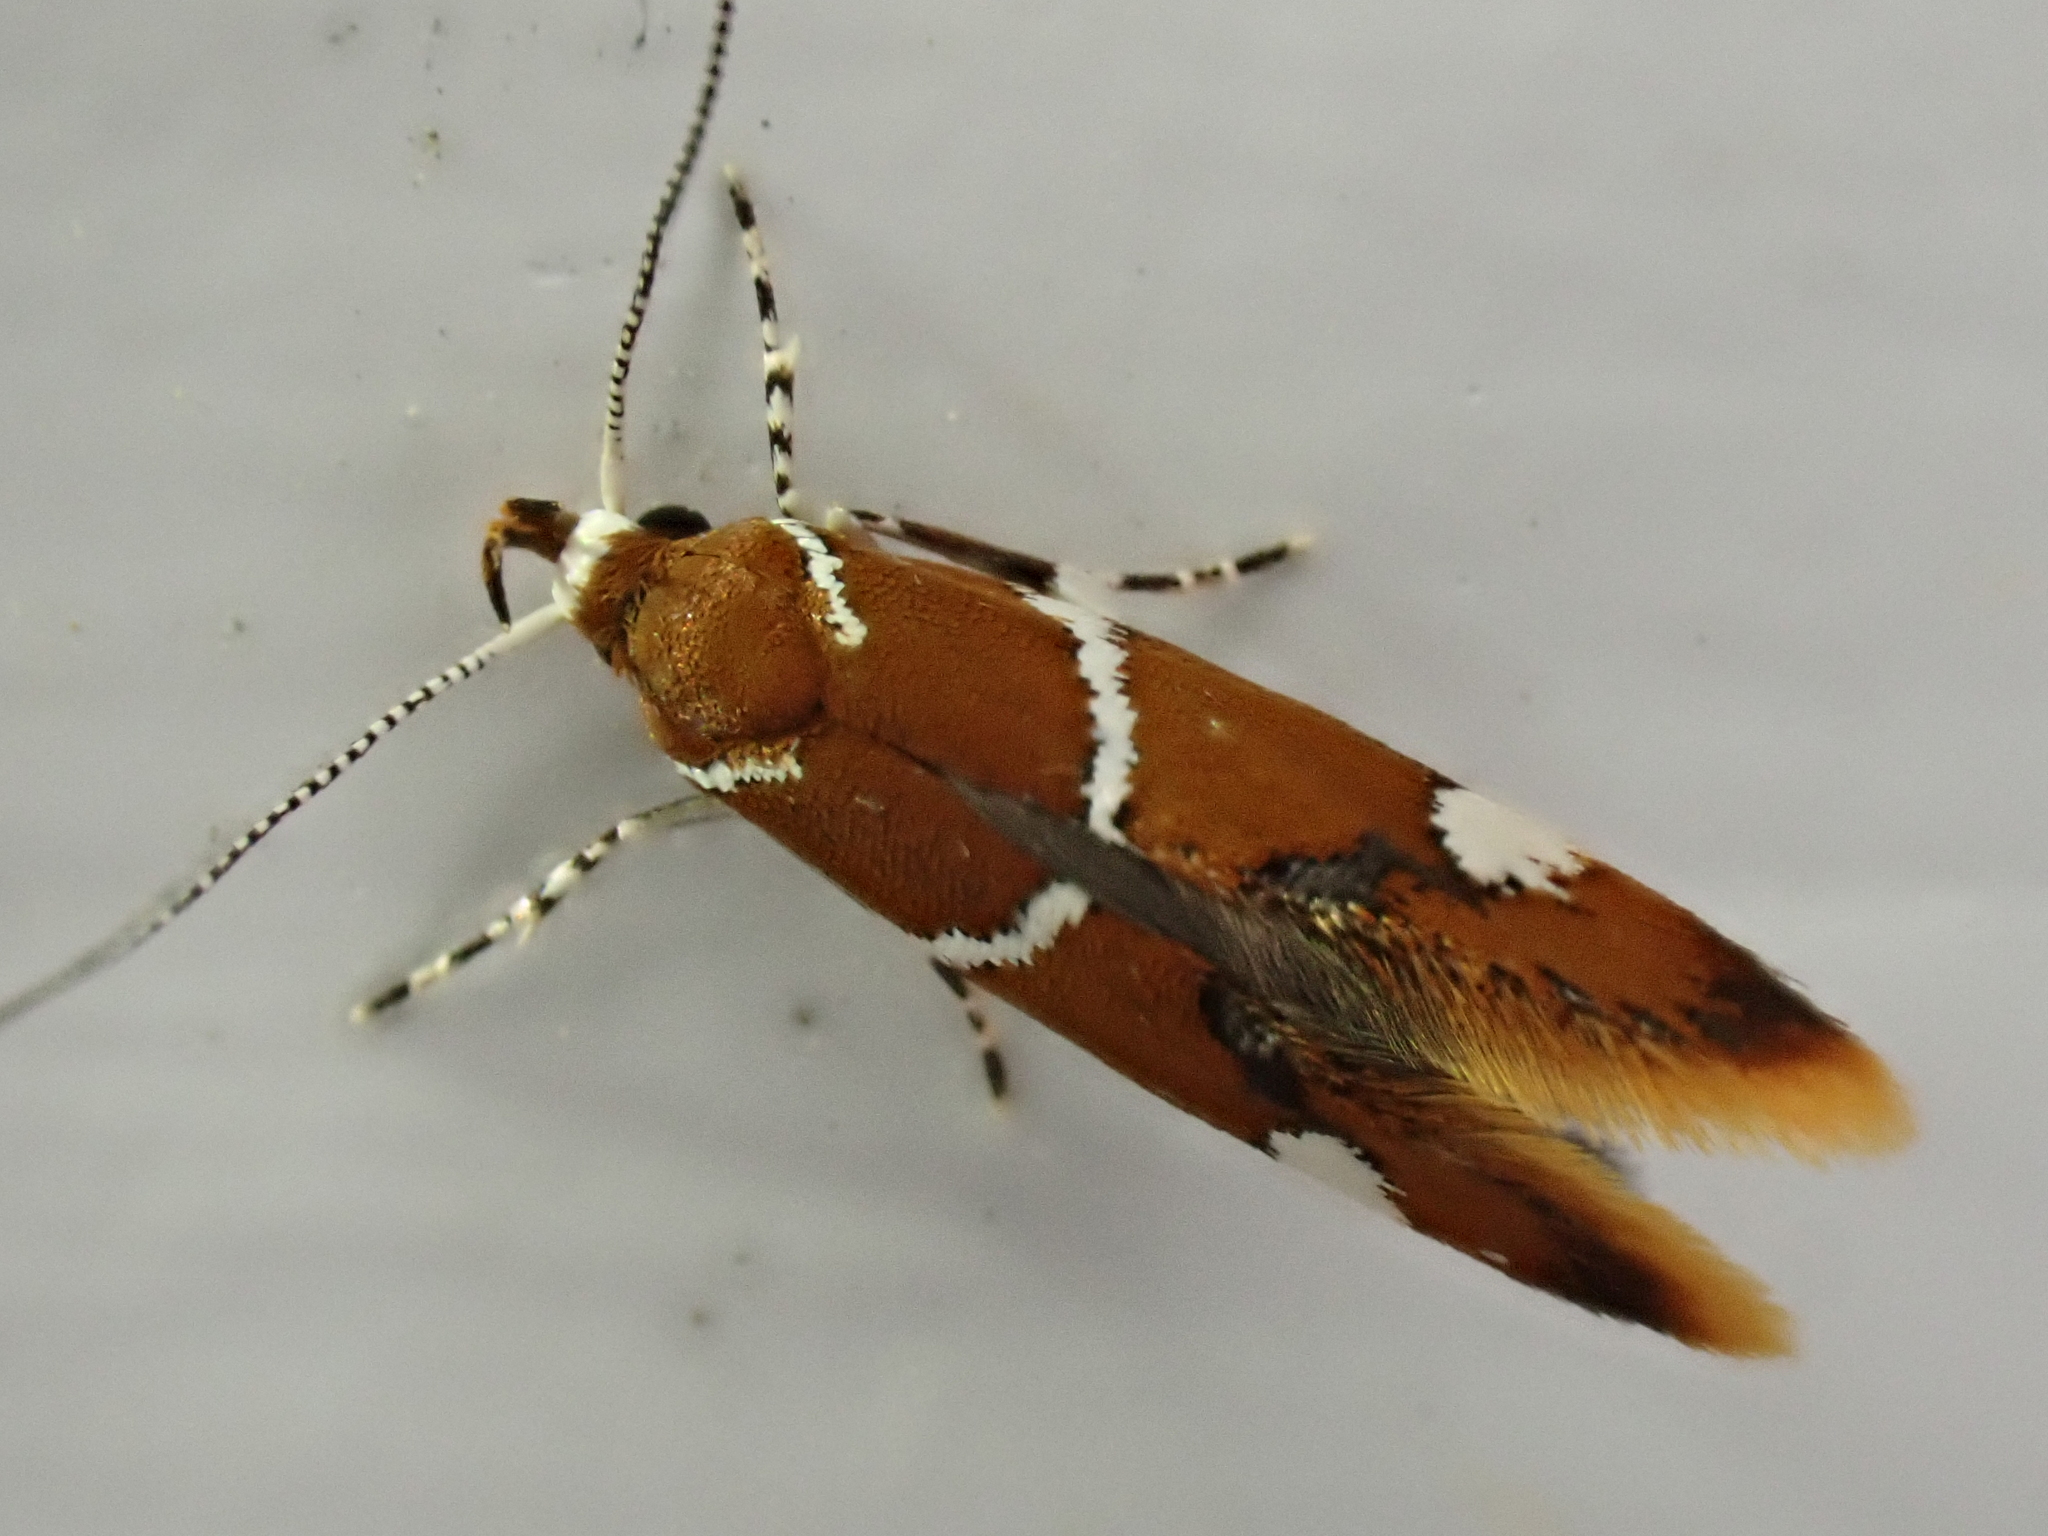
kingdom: Animalia
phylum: Arthropoda
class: Insecta
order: Lepidoptera
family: Oecophoridae
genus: Promalactis
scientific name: Promalactis suzukiella
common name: Moth
